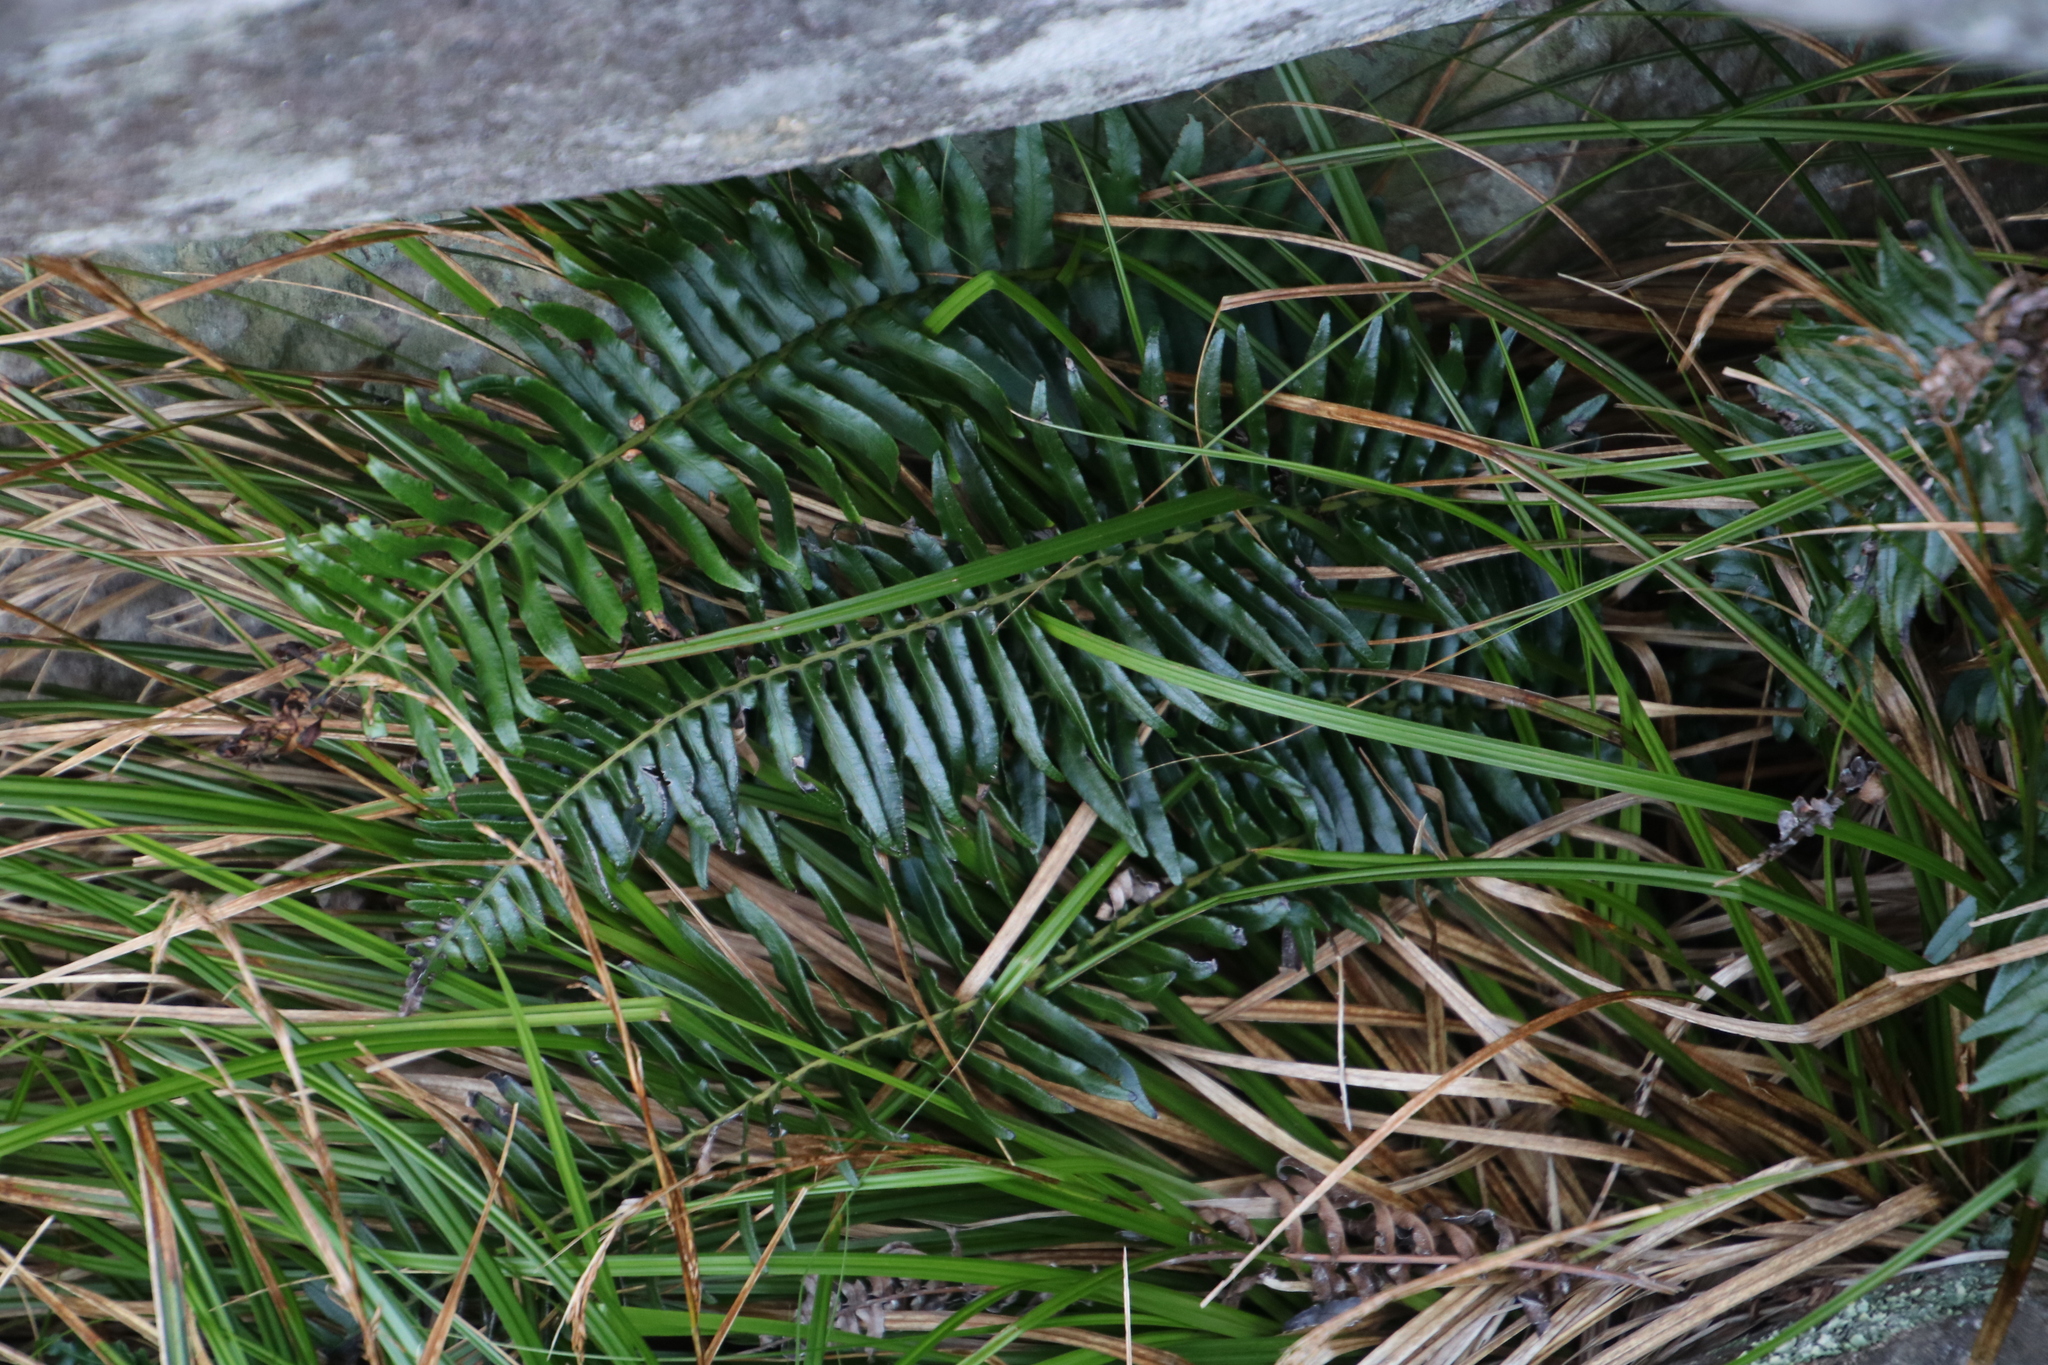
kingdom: Plantae
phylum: Tracheophyta
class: Polypodiopsida
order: Polypodiales
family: Blechnaceae
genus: Blechnum
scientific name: Blechnum punctulatum
